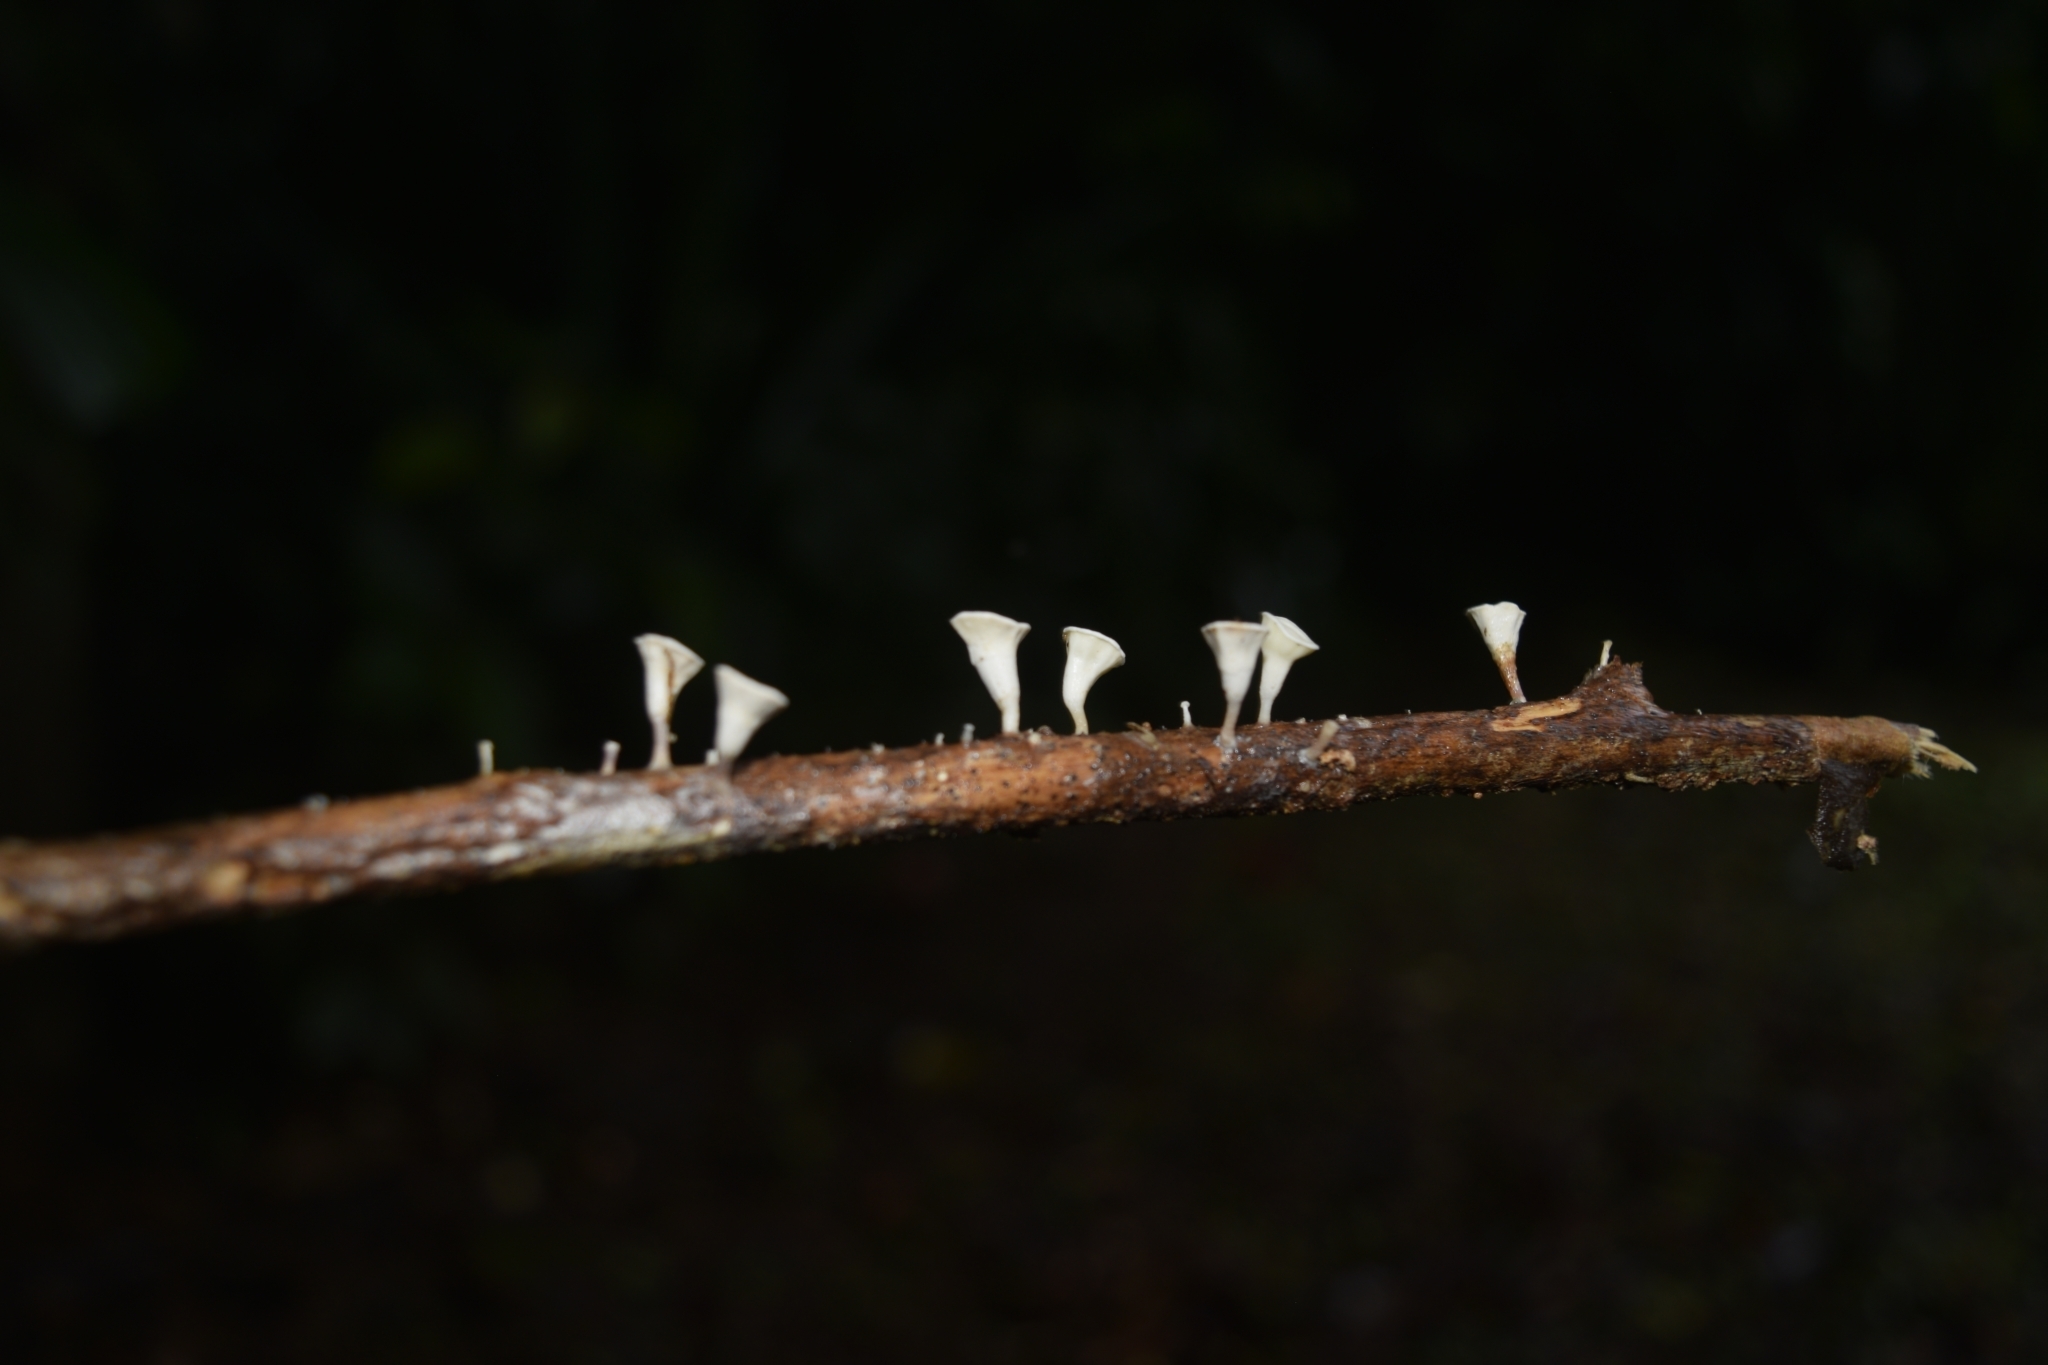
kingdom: Fungi
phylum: Basidiomycota
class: Agaricomycetes
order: Agaricales
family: Omphalotaceae
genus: Gymnopus
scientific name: Gymnopus montagnei
